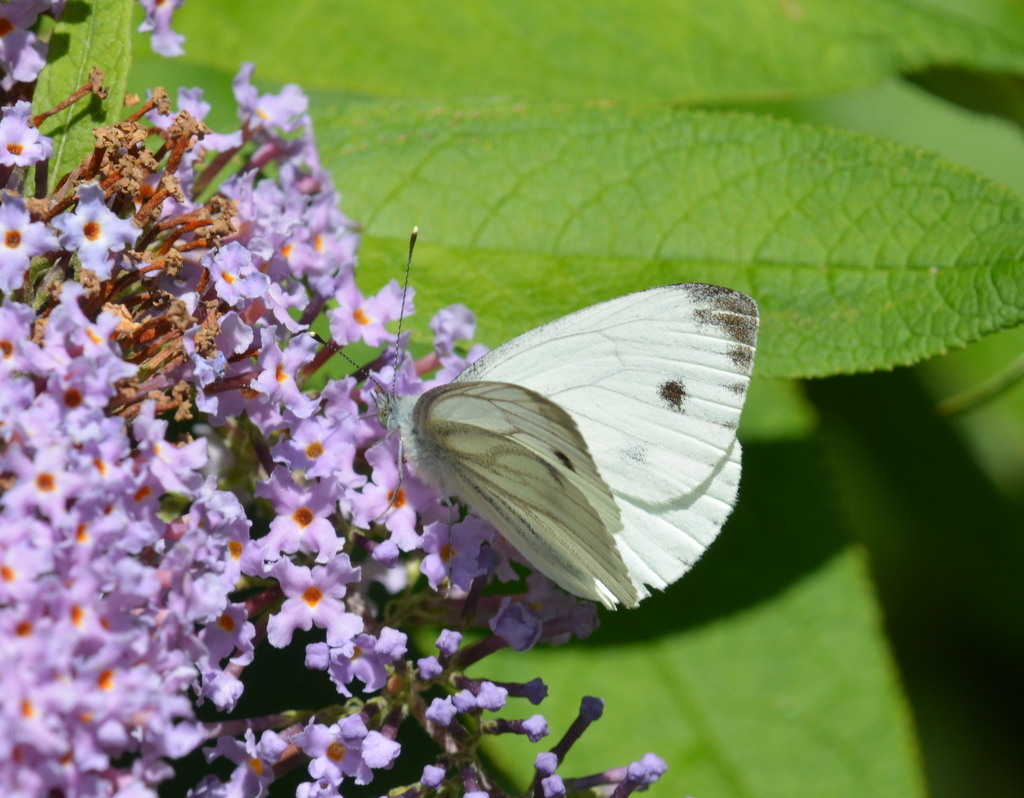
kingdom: Animalia
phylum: Arthropoda
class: Insecta
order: Lepidoptera
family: Pieridae
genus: Pieris
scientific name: Pieris napi
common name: Green-veined white
